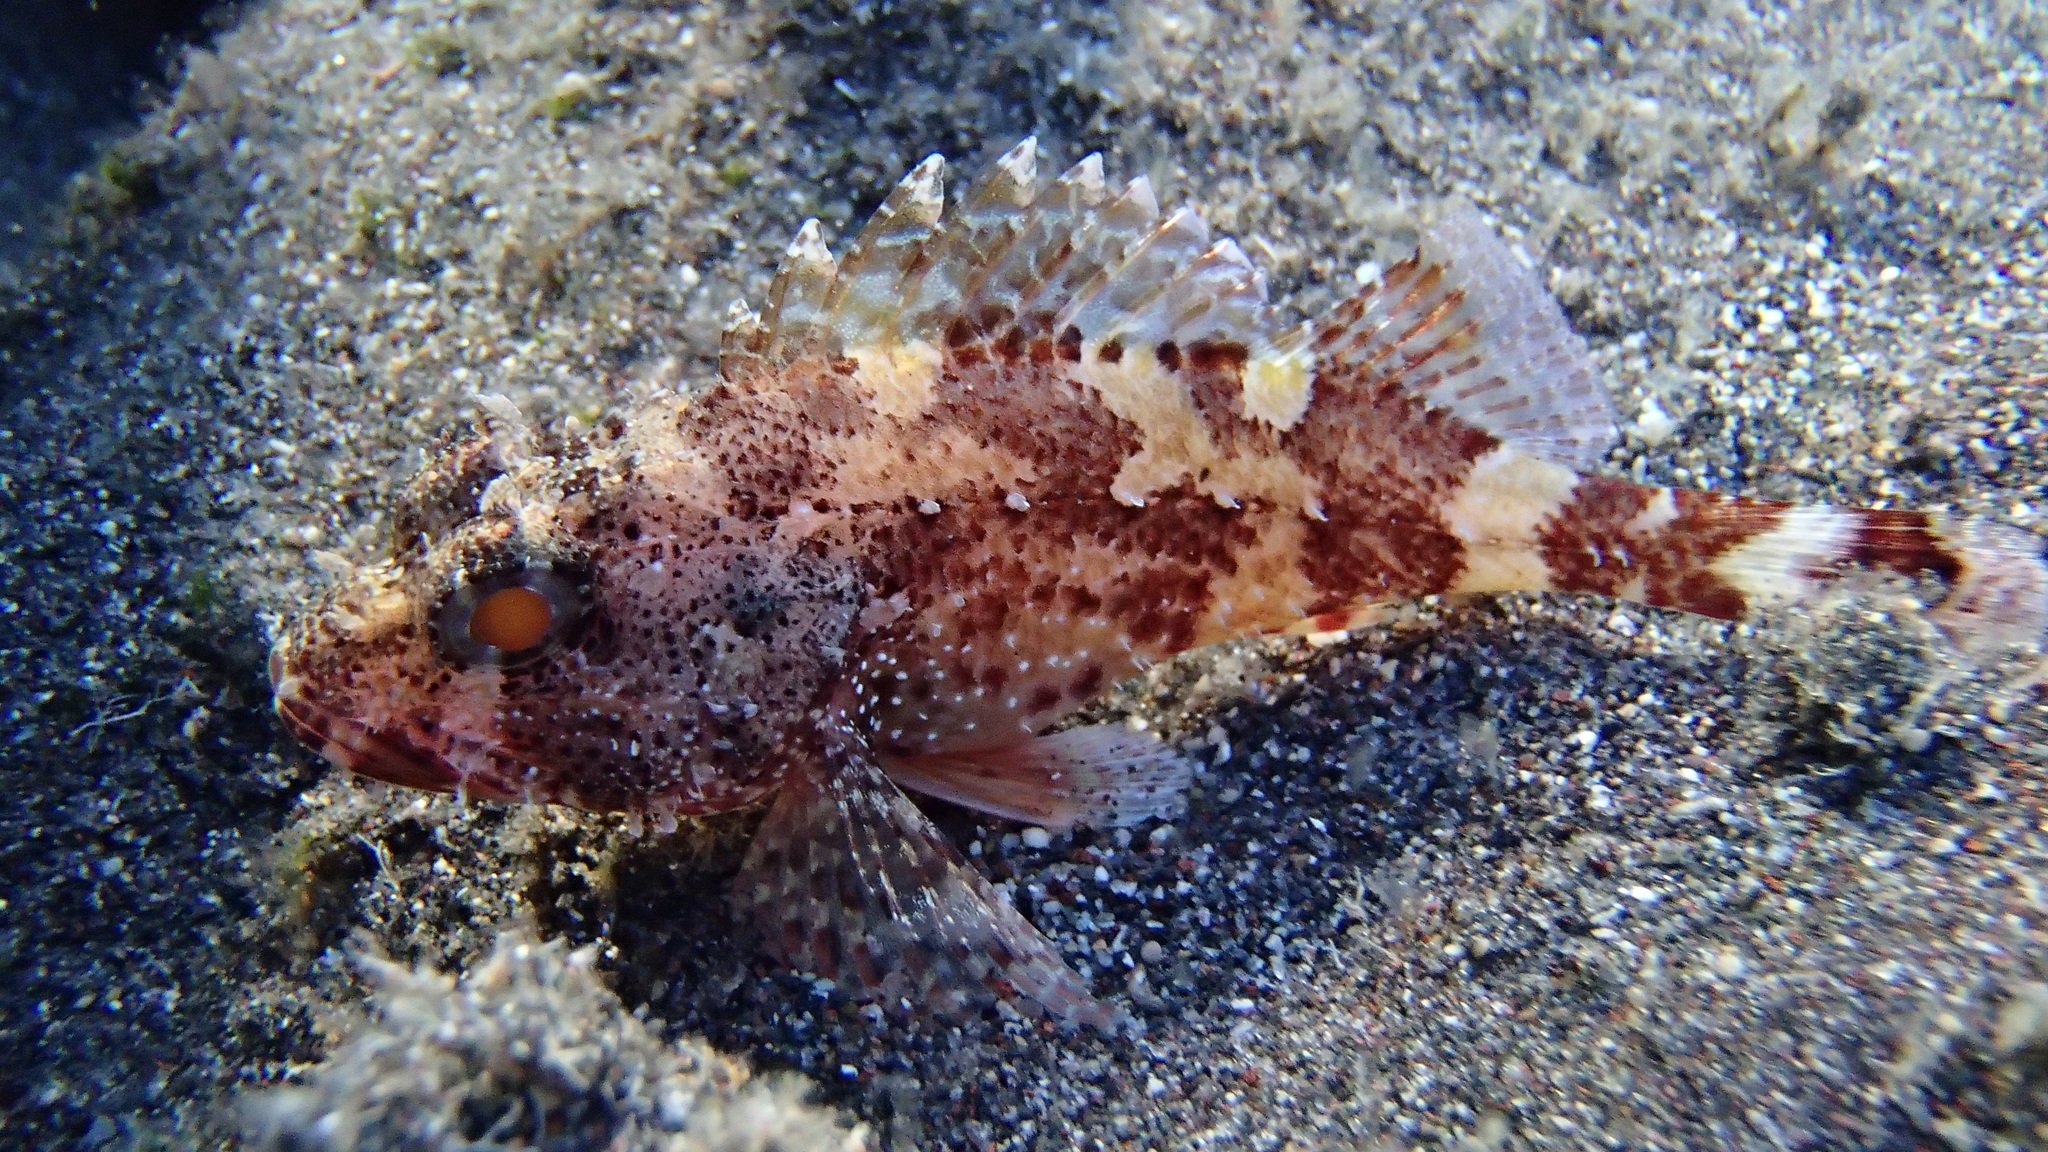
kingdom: Animalia
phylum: Chordata
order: Scorpaeniformes
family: Scorpaenidae
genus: Scorpaena
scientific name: Scorpaena maderensis
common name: Madeira rockfish
